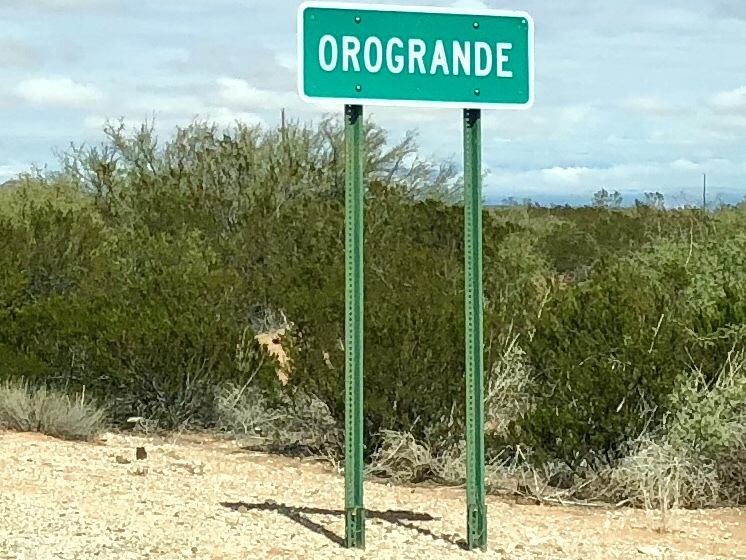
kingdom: Plantae
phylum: Tracheophyta
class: Magnoliopsida
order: Zygophyllales
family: Zygophyllaceae
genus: Larrea
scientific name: Larrea tridentata
